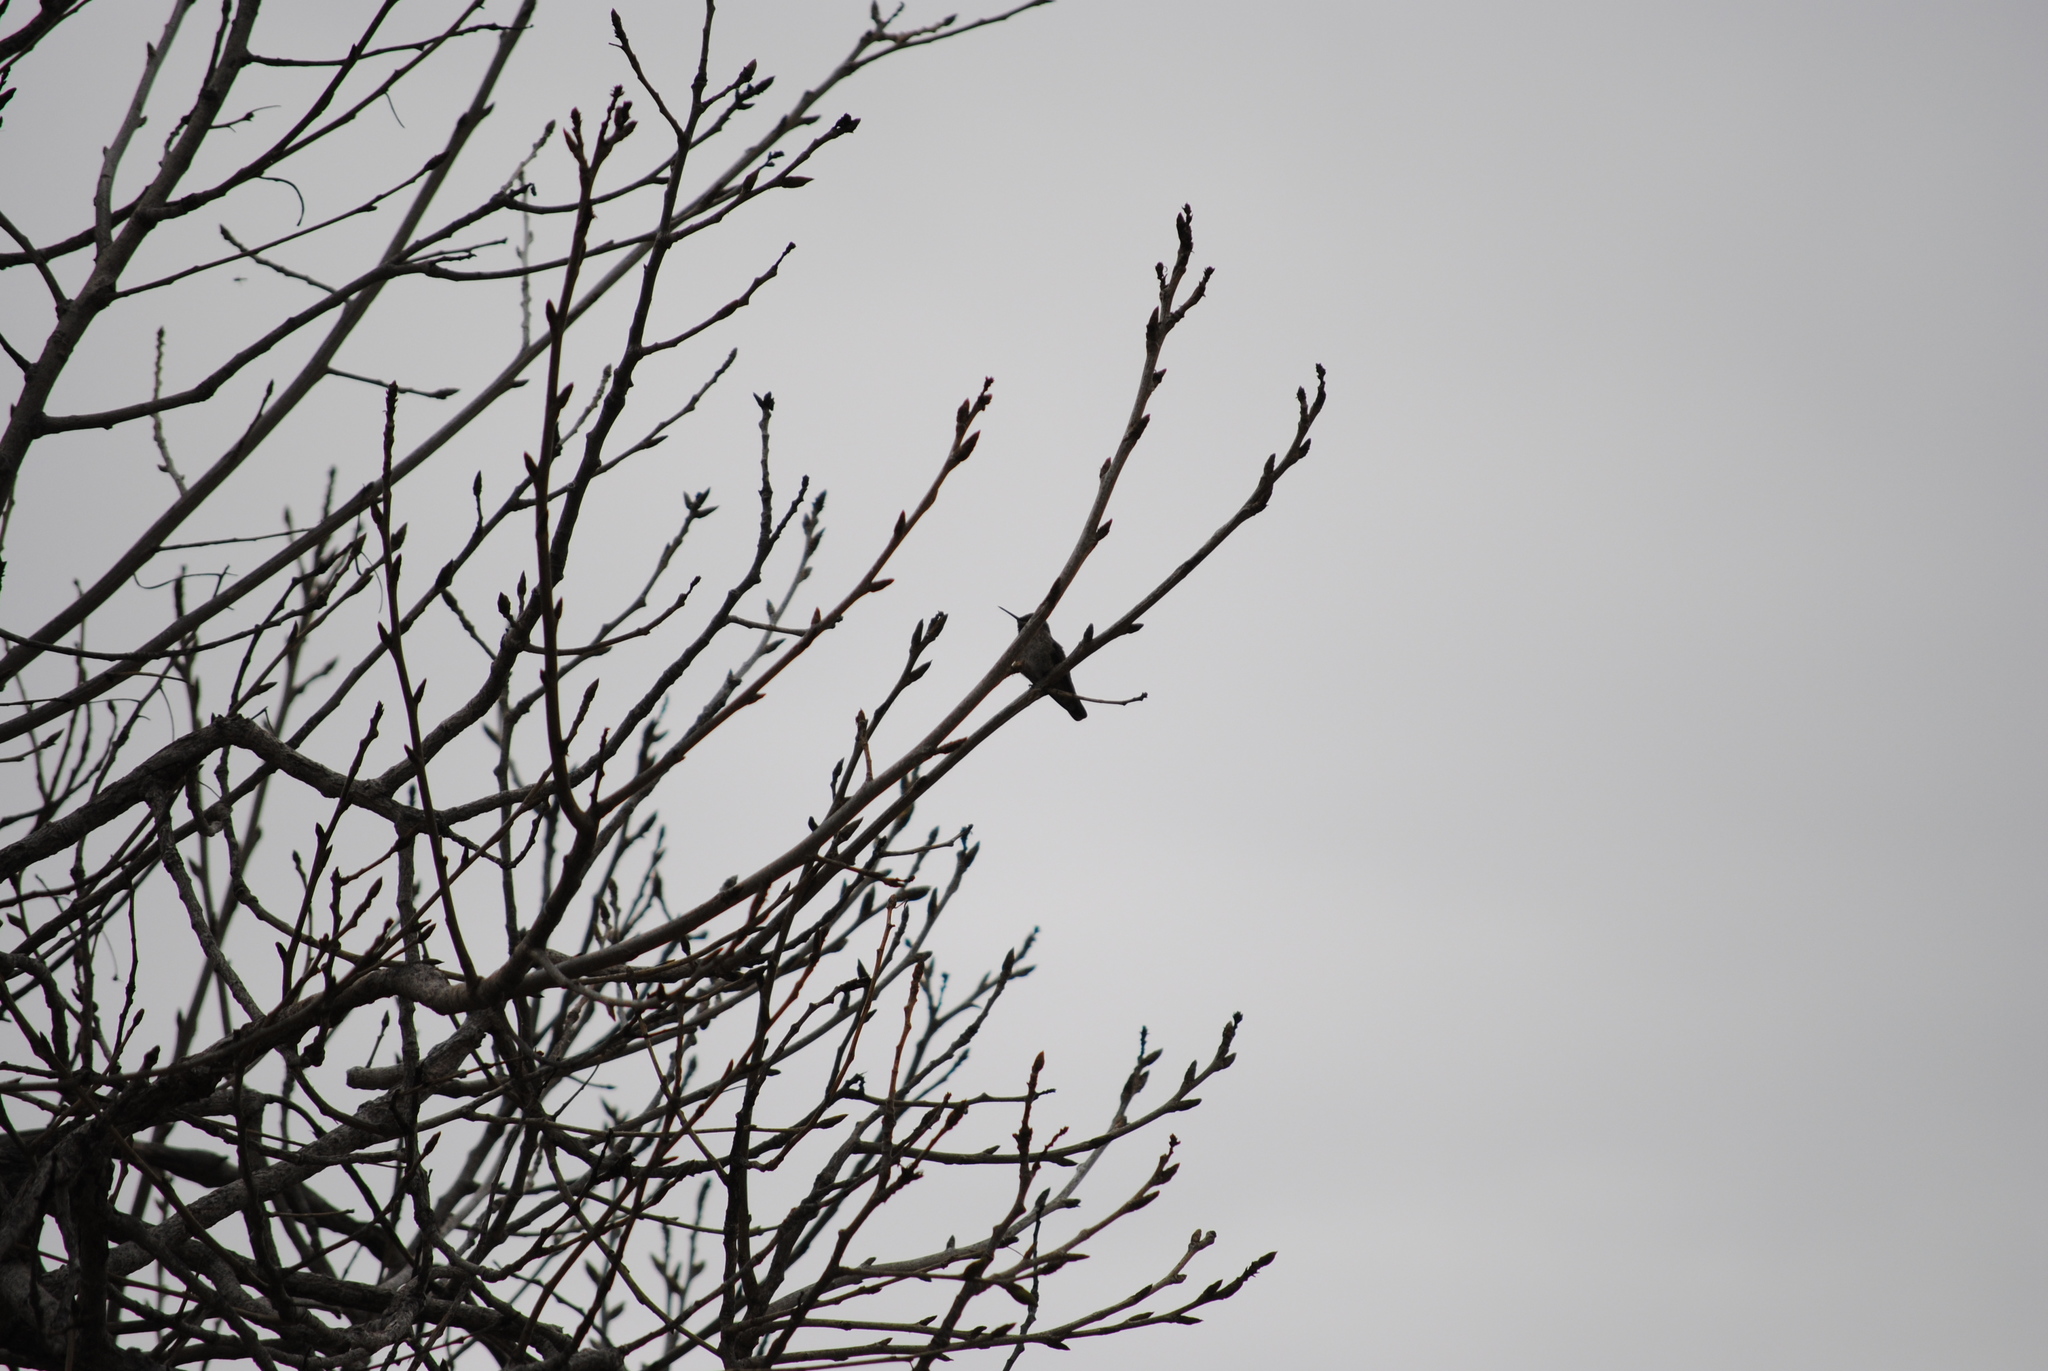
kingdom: Animalia
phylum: Chordata
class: Aves
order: Apodiformes
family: Trochilidae
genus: Calypte
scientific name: Calypte anna
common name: Anna's hummingbird
